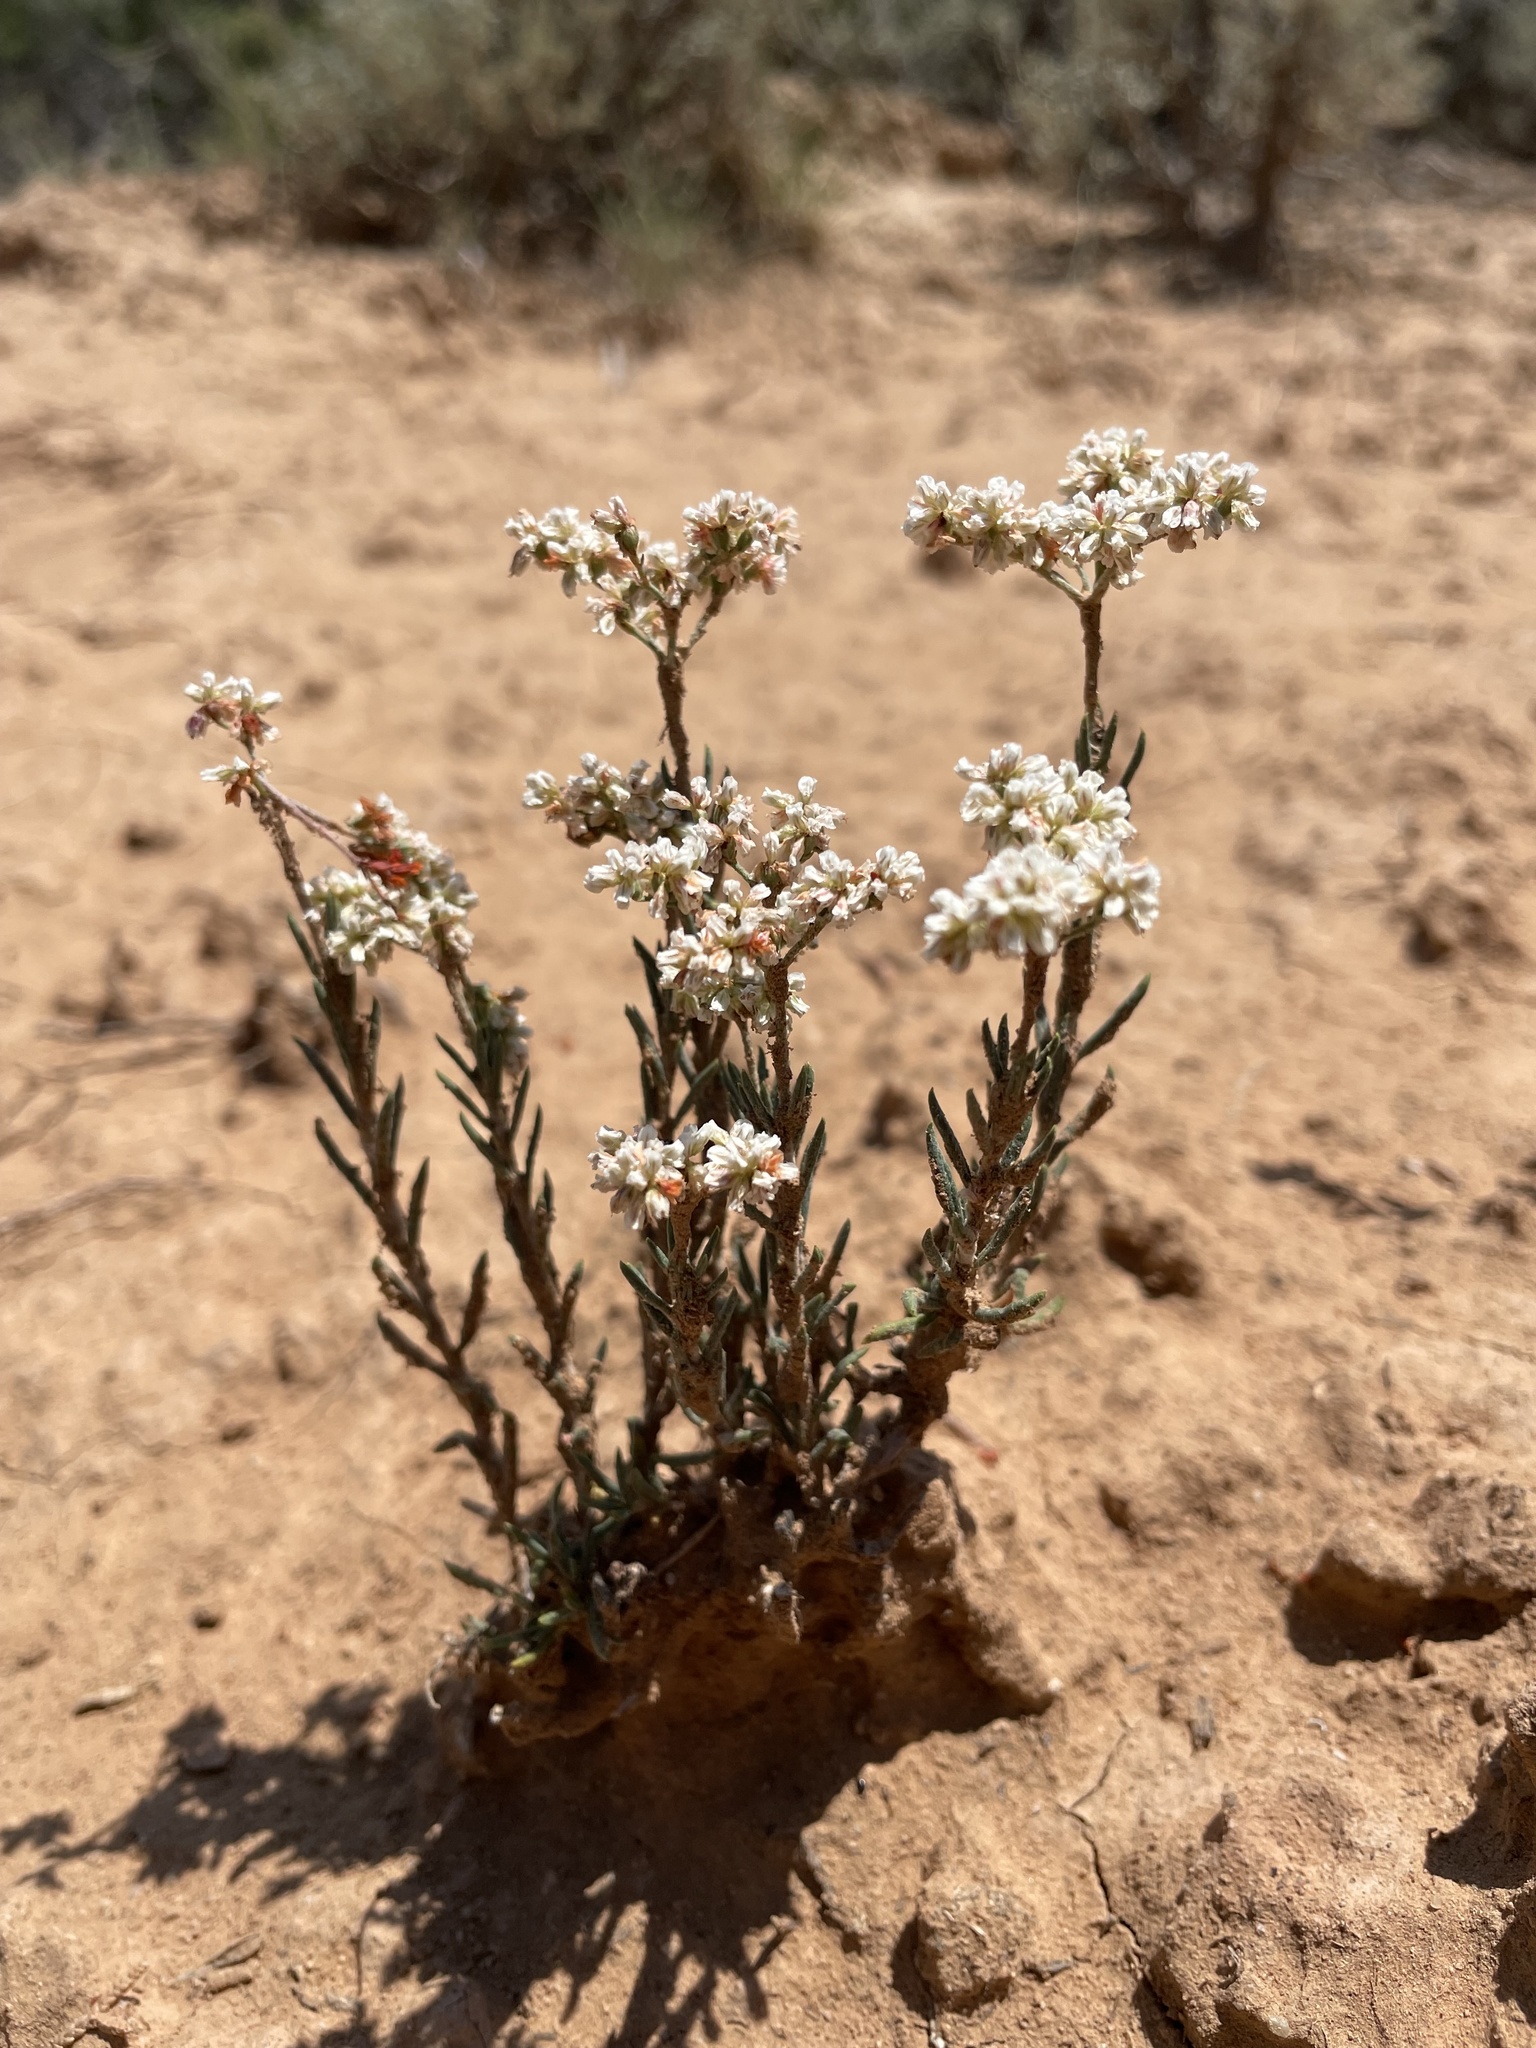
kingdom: Plantae
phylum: Tracheophyta
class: Magnoliopsida
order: Caryophyllales
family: Polygonaceae
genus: Eriogonum
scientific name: Eriogonum microtheca
